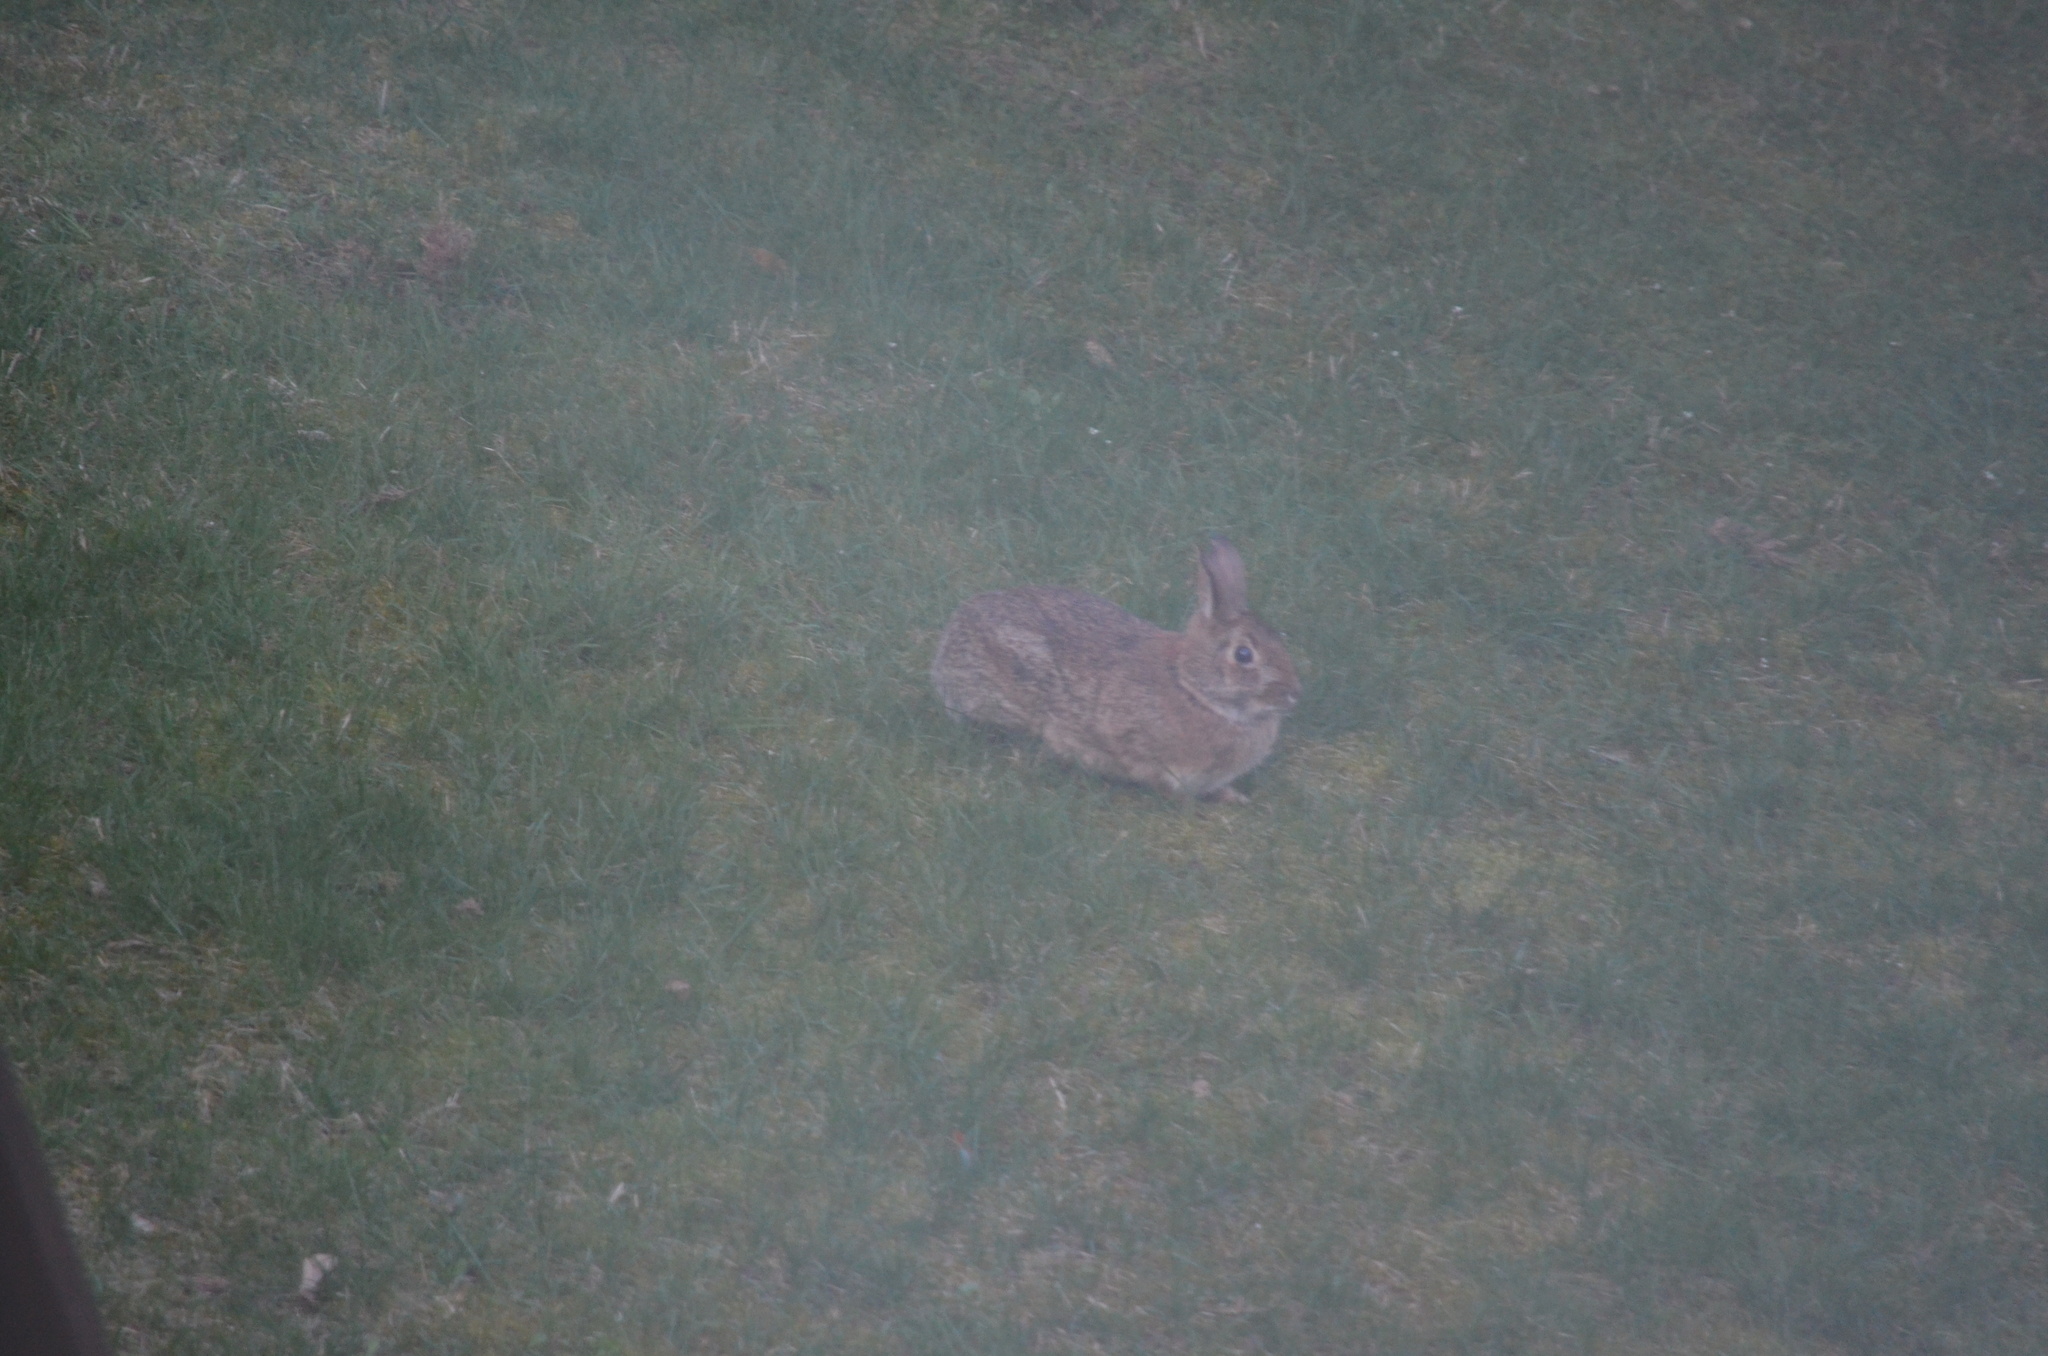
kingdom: Animalia
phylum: Chordata
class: Mammalia
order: Lagomorpha
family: Leporidae
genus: Sylvilagus
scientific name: Sylvilagus floridanus
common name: Eastern cottontail
